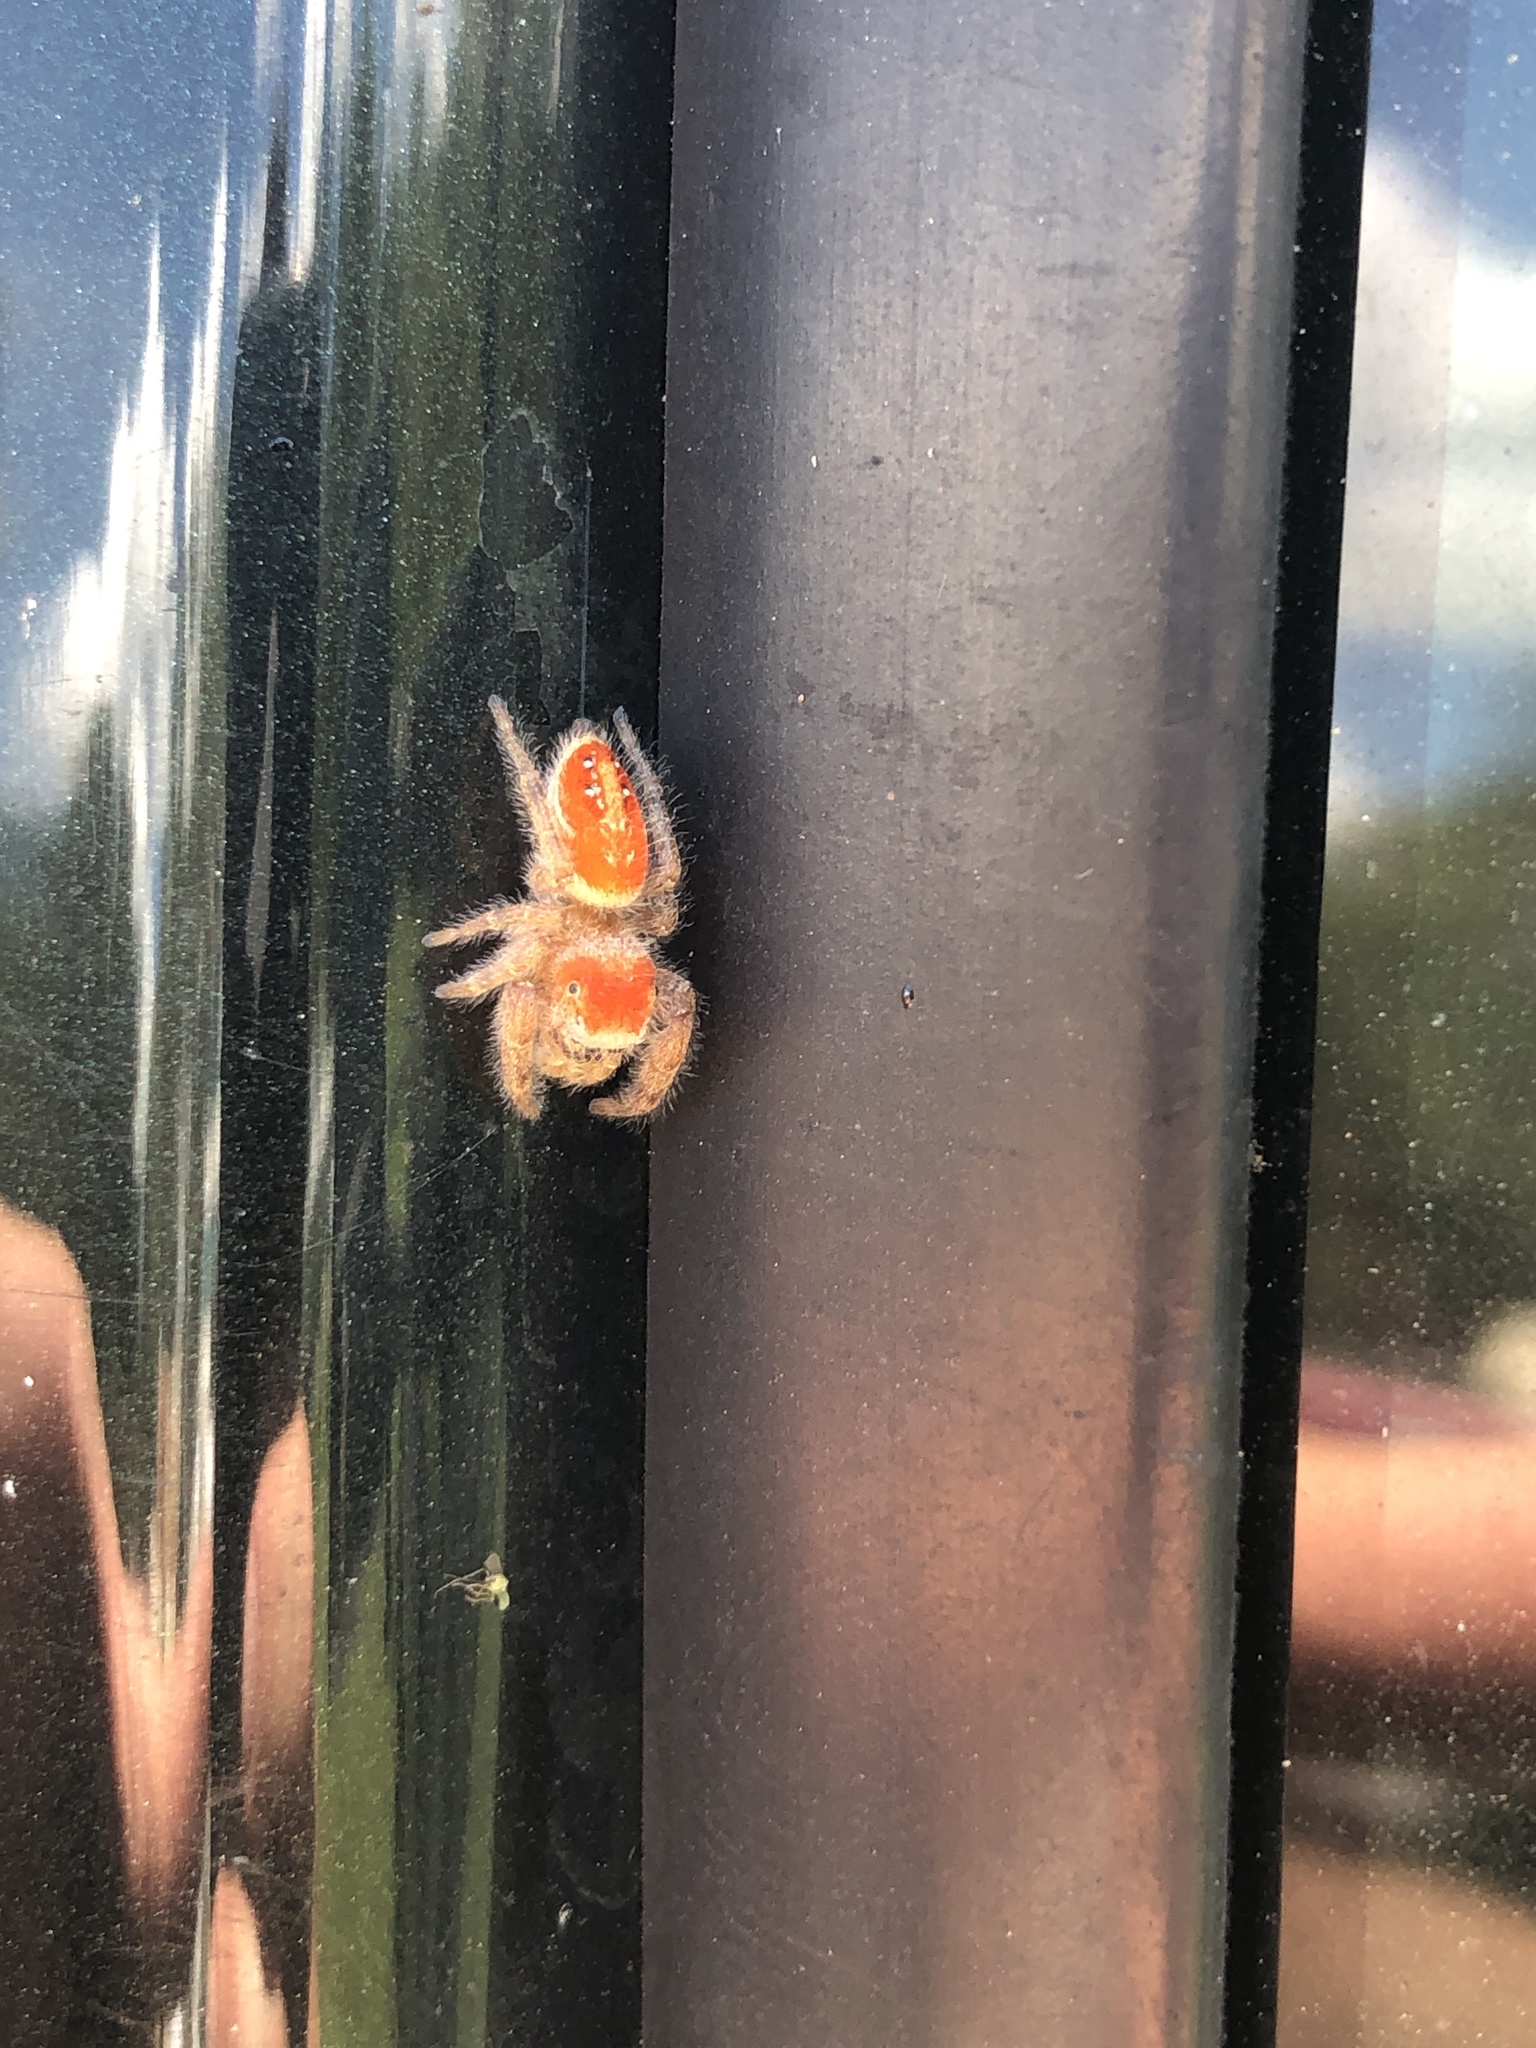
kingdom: Animalia
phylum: Arthropoda
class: Arachnida
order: Araneae
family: Salticidae
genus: Phidippus
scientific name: Phidippus cardinalis
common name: Cardinal jumper
